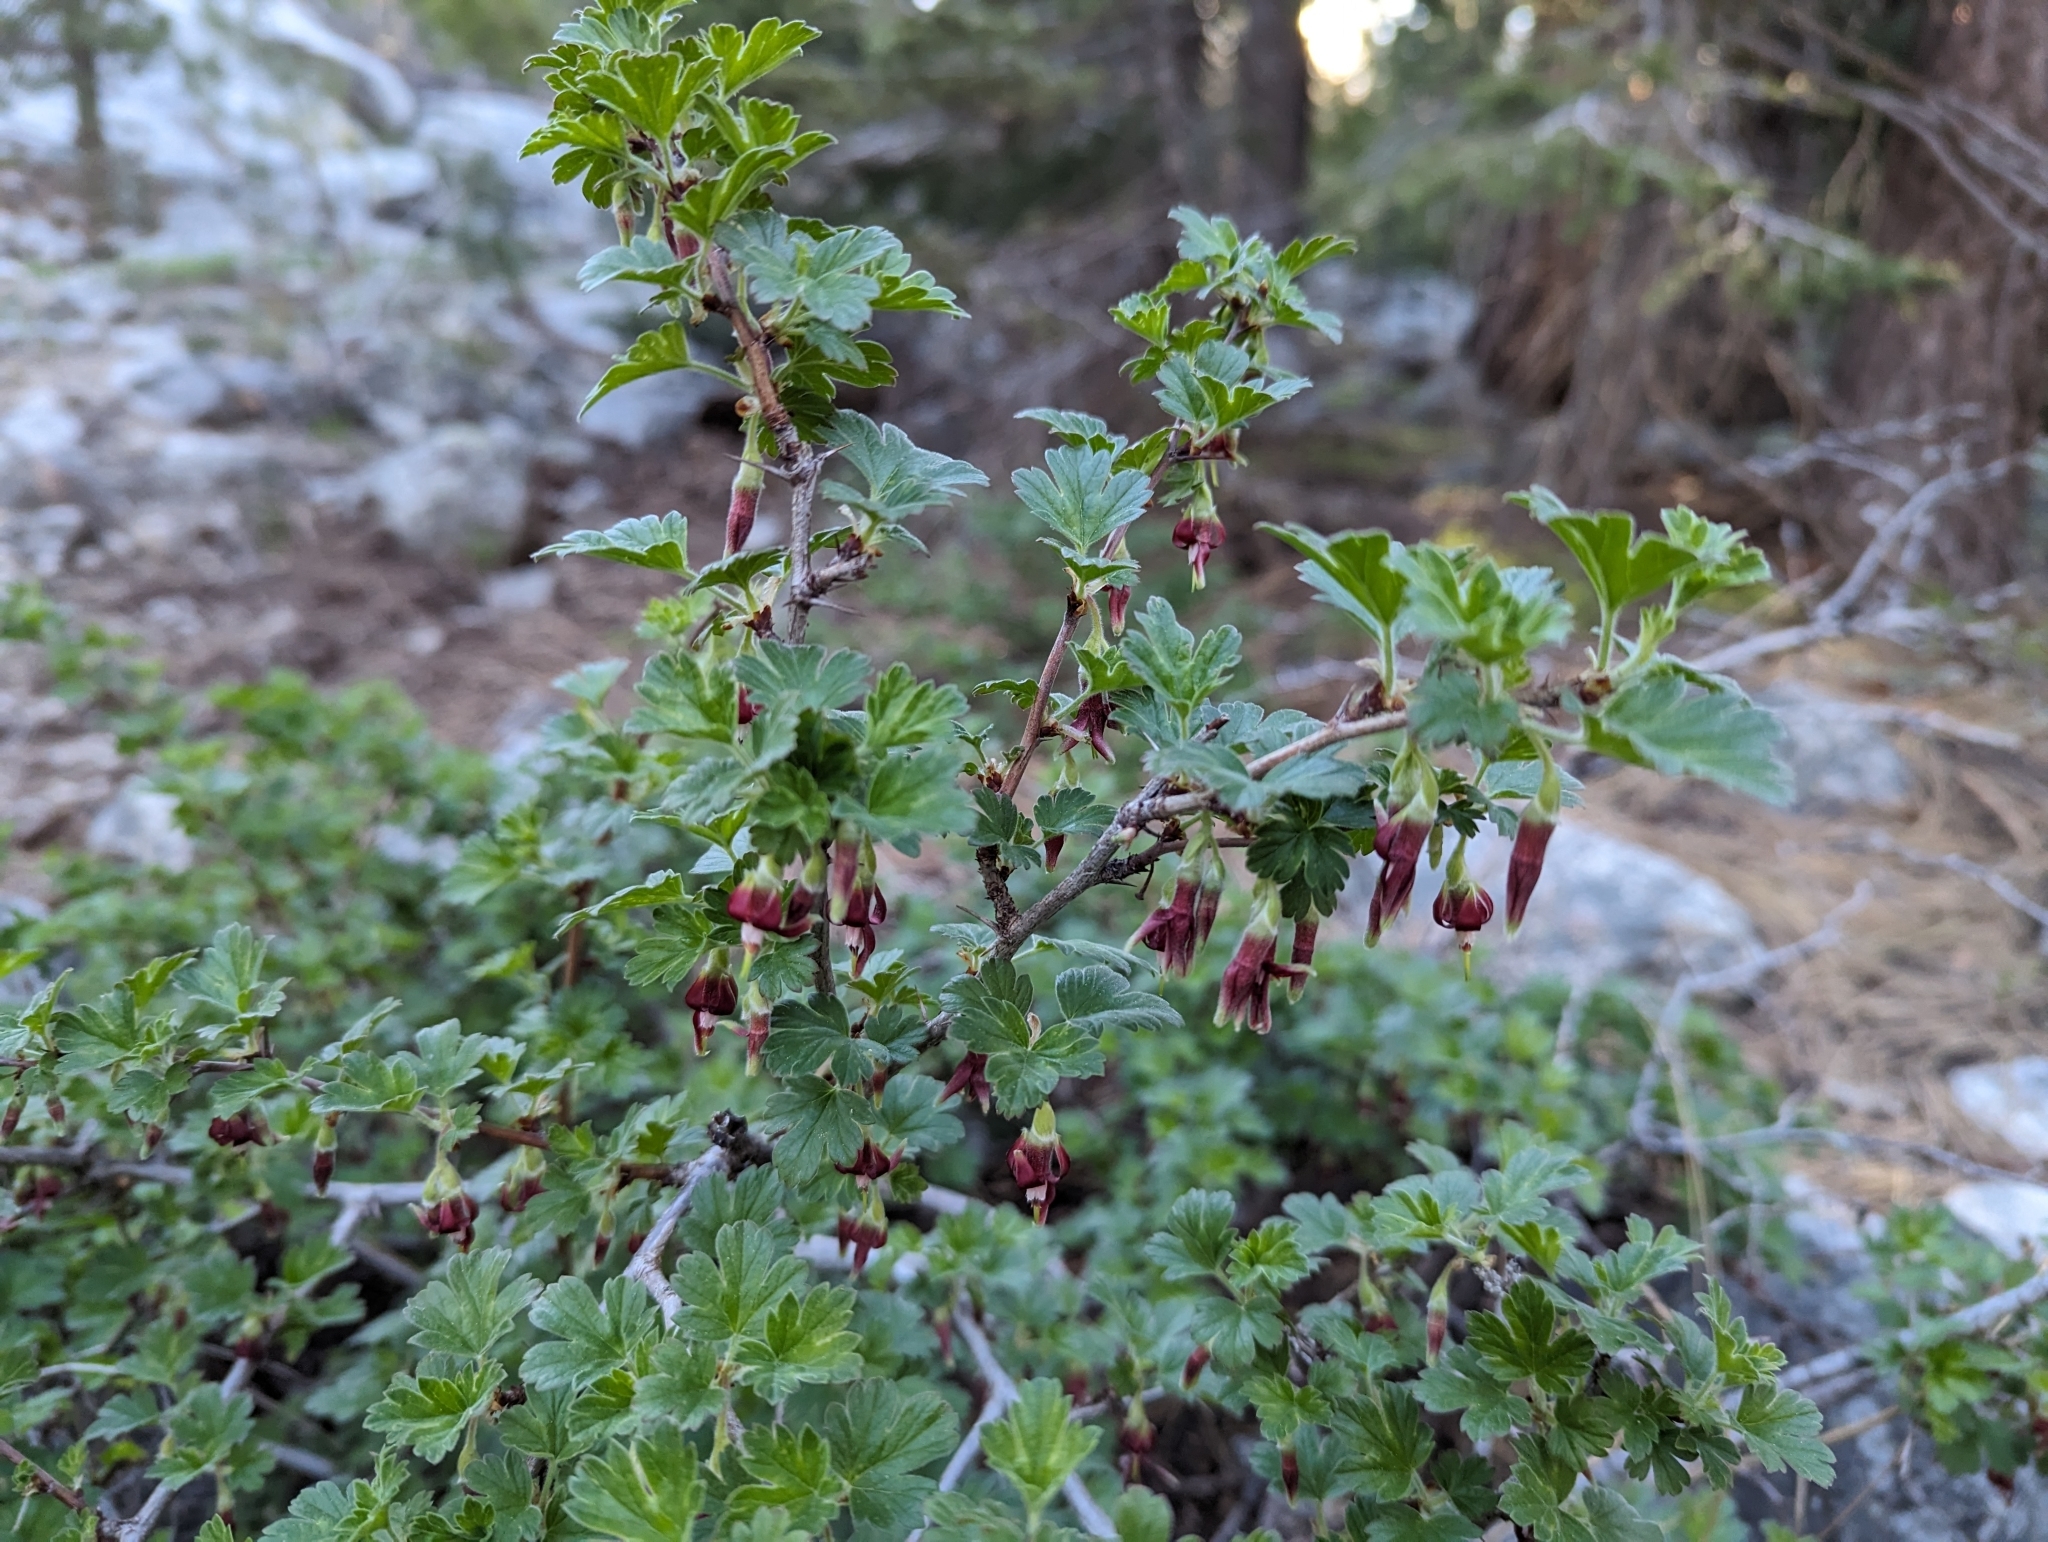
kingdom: Plantae
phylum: Tracheophyta
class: Magnoliopsida
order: Saxifragales
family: Grossulariaceae
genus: Ribes
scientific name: Ribes roezlii
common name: Sierra gooseberry
